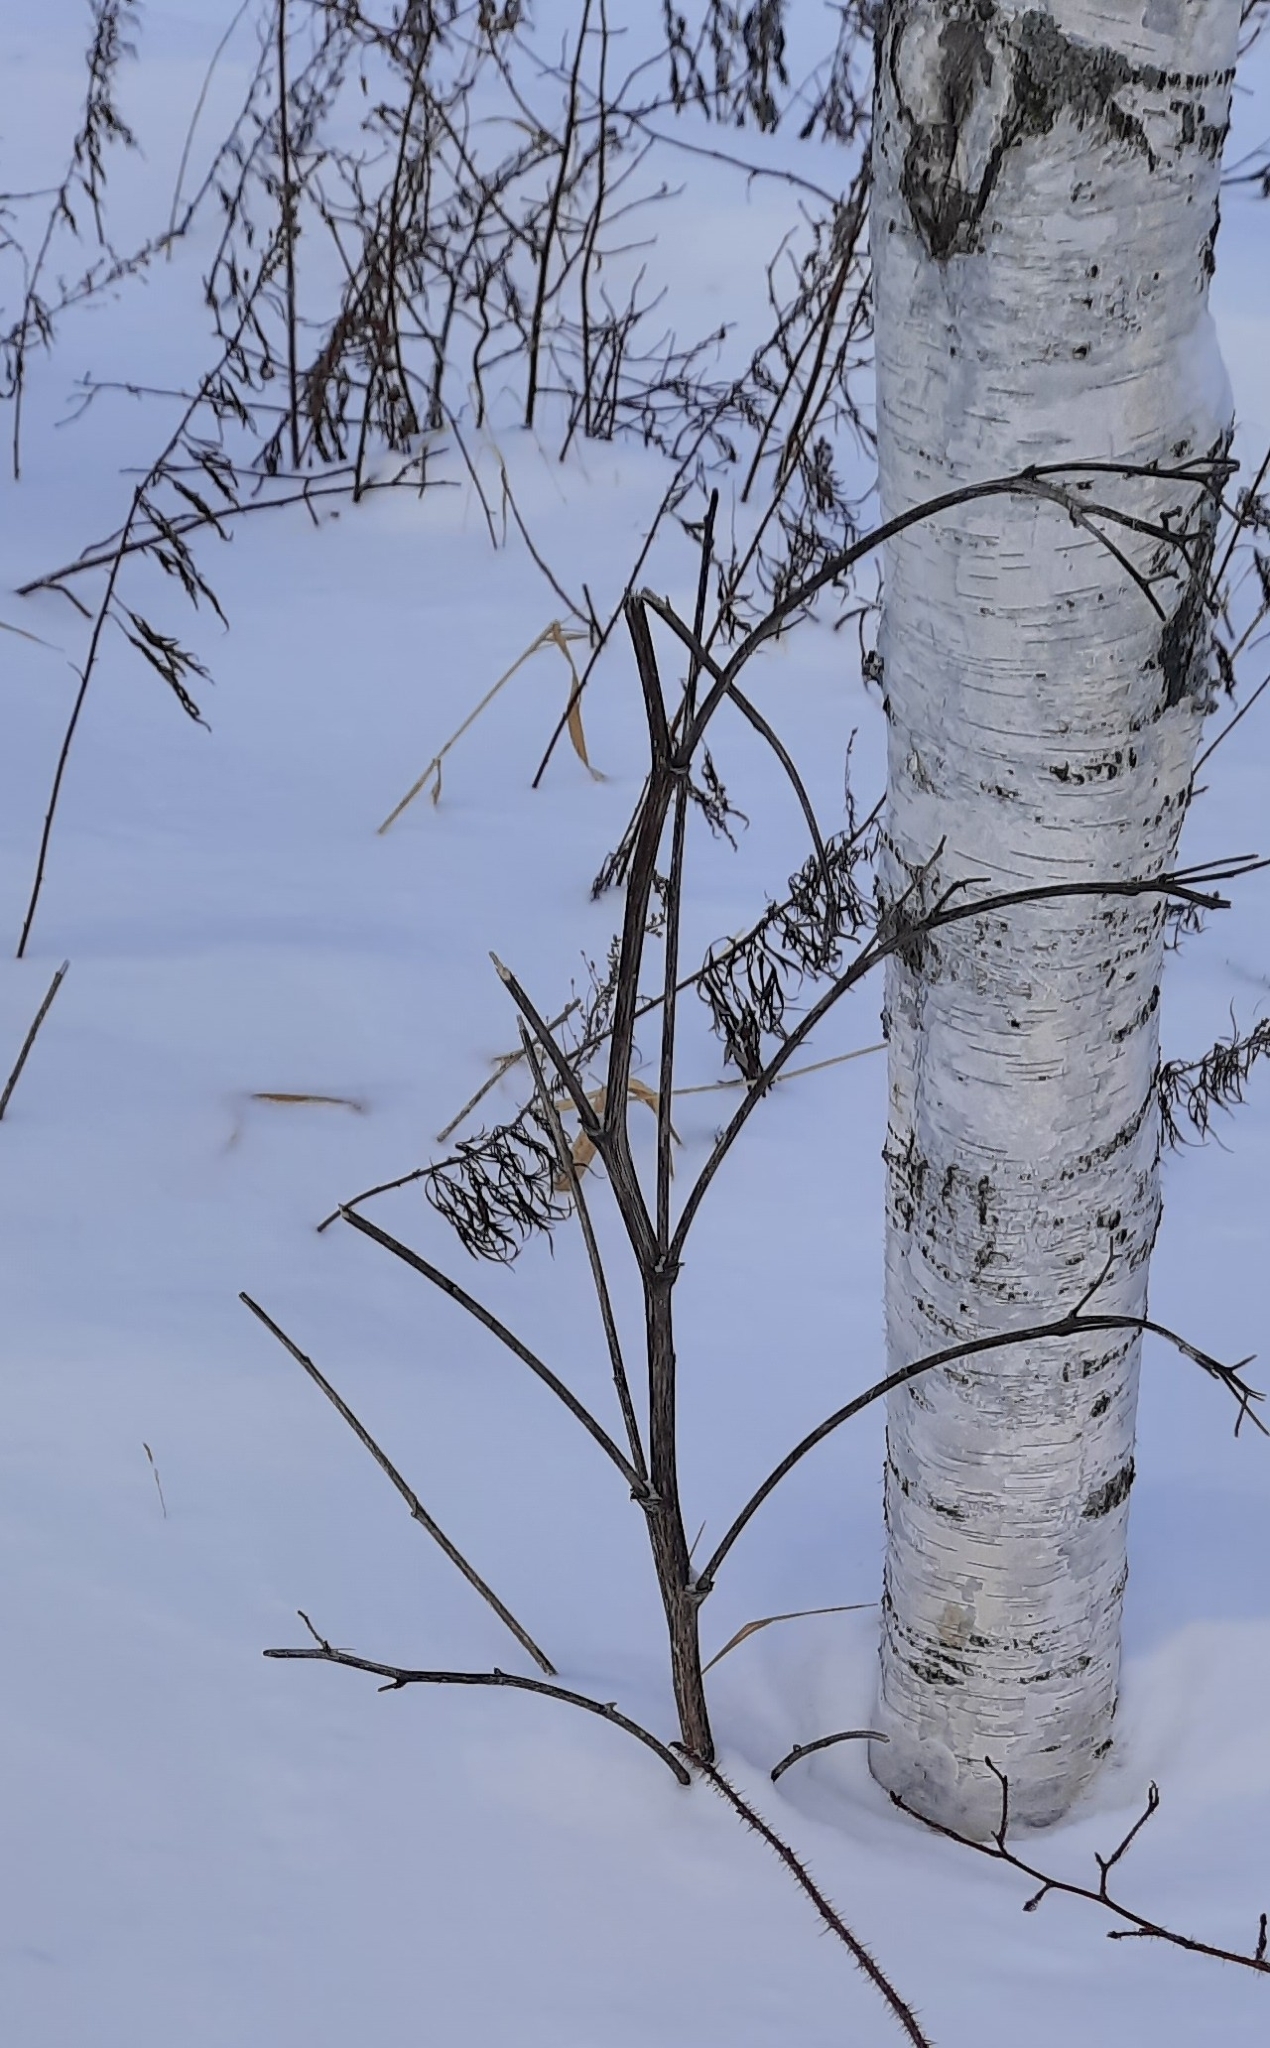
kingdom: Plantae
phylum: Tracheophyta
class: Magnoliopsida
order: Asterales
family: Asteraceae
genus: Arctium
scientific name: Arctium tomentosum
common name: Woolly burdock
